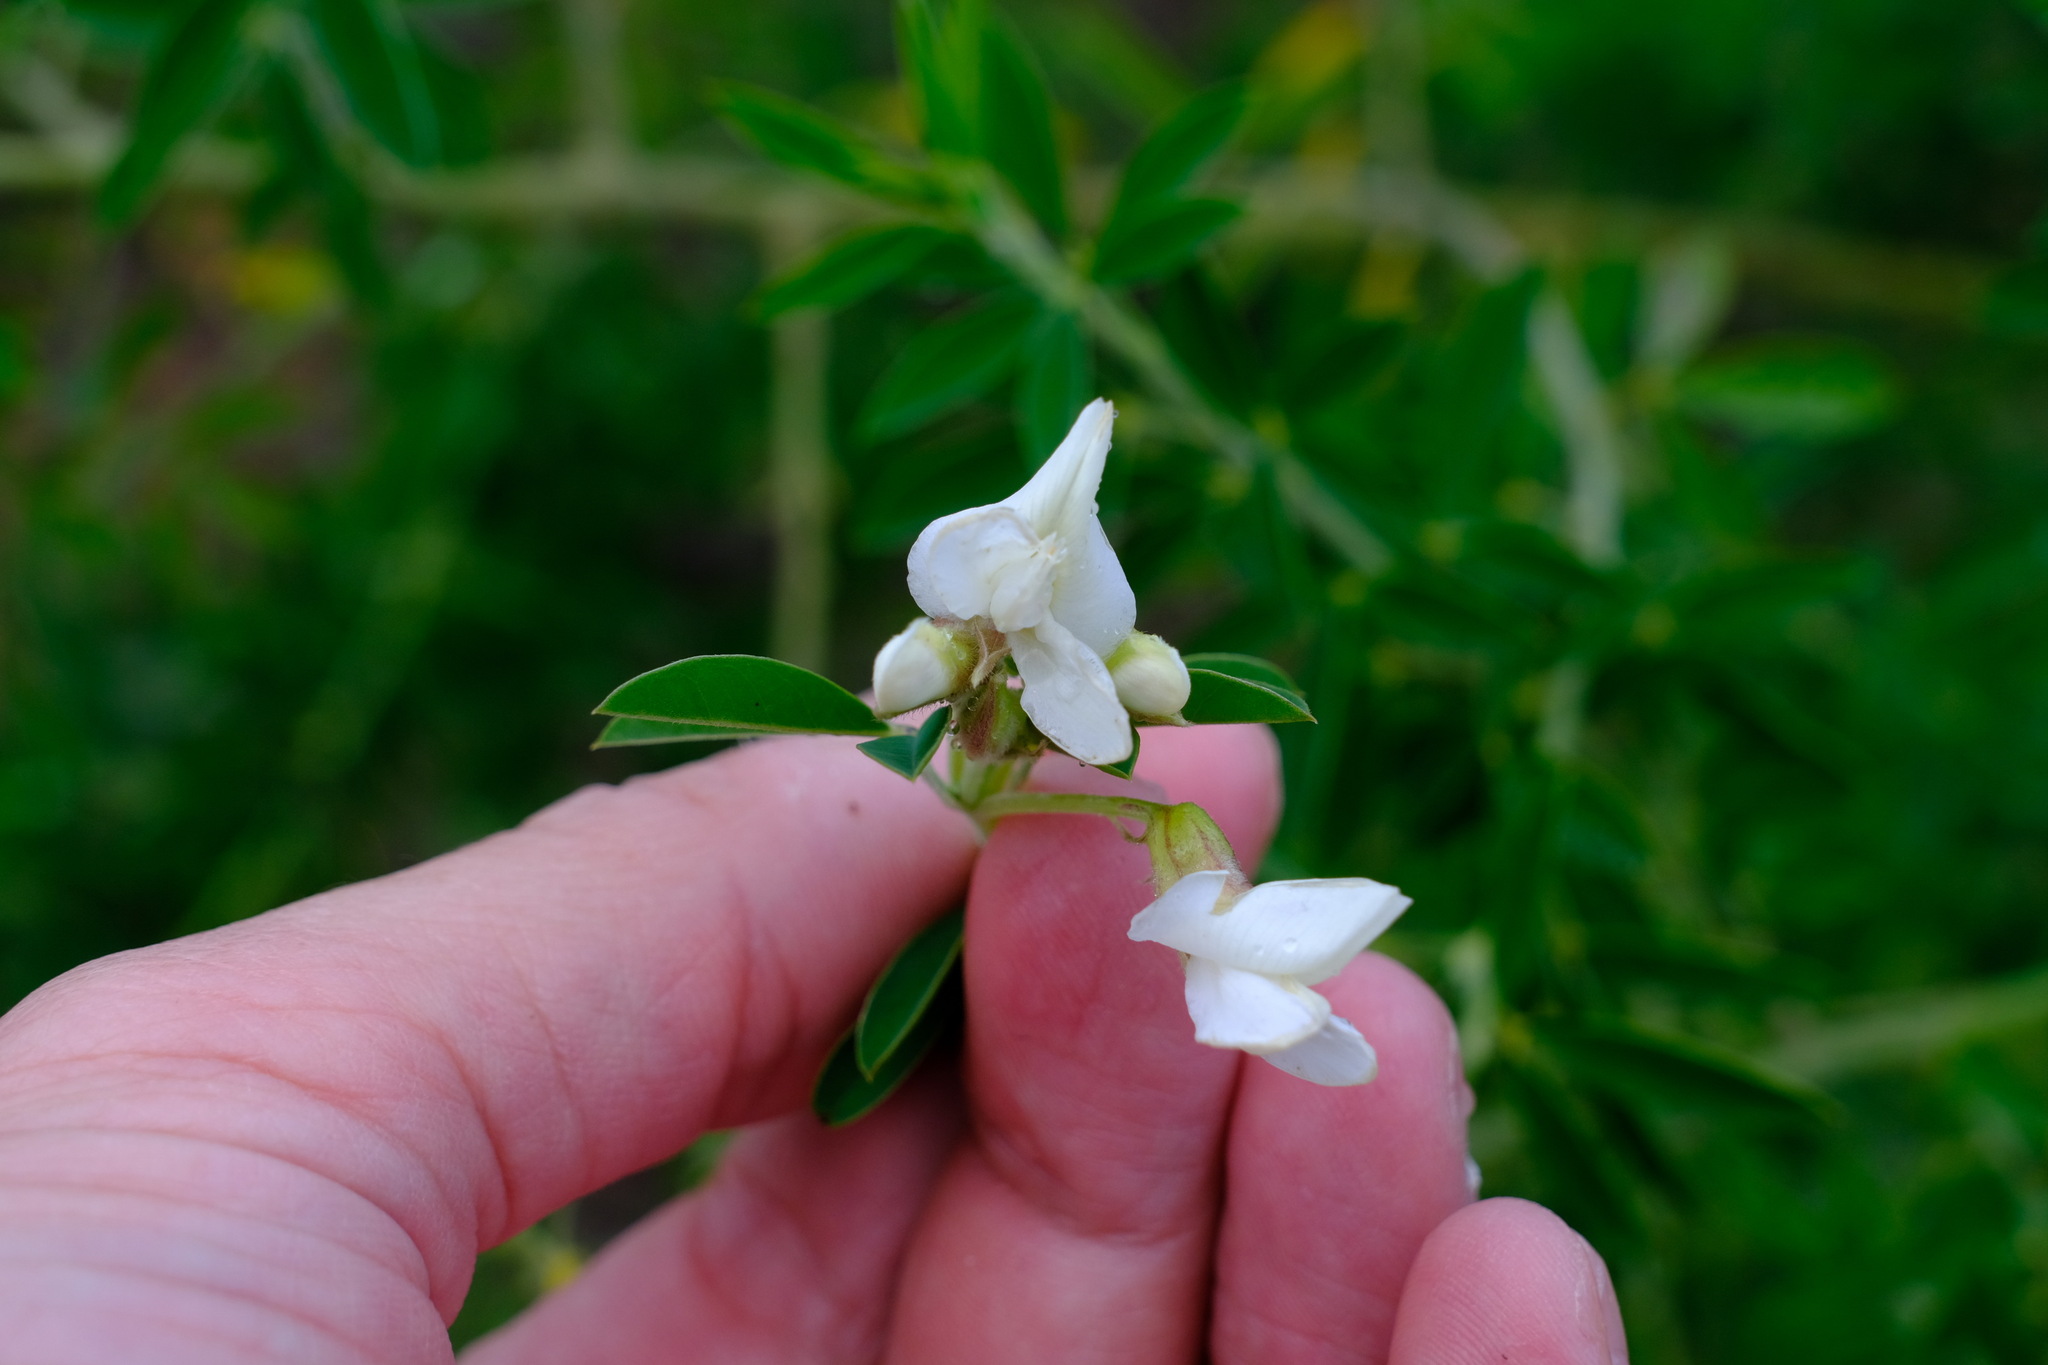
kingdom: Plantae
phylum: Tracheophyta
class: Magnoliopsida
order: Fabales
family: Fabaceae
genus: Chamaecytisus
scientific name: Chamaecytisus prolifer
